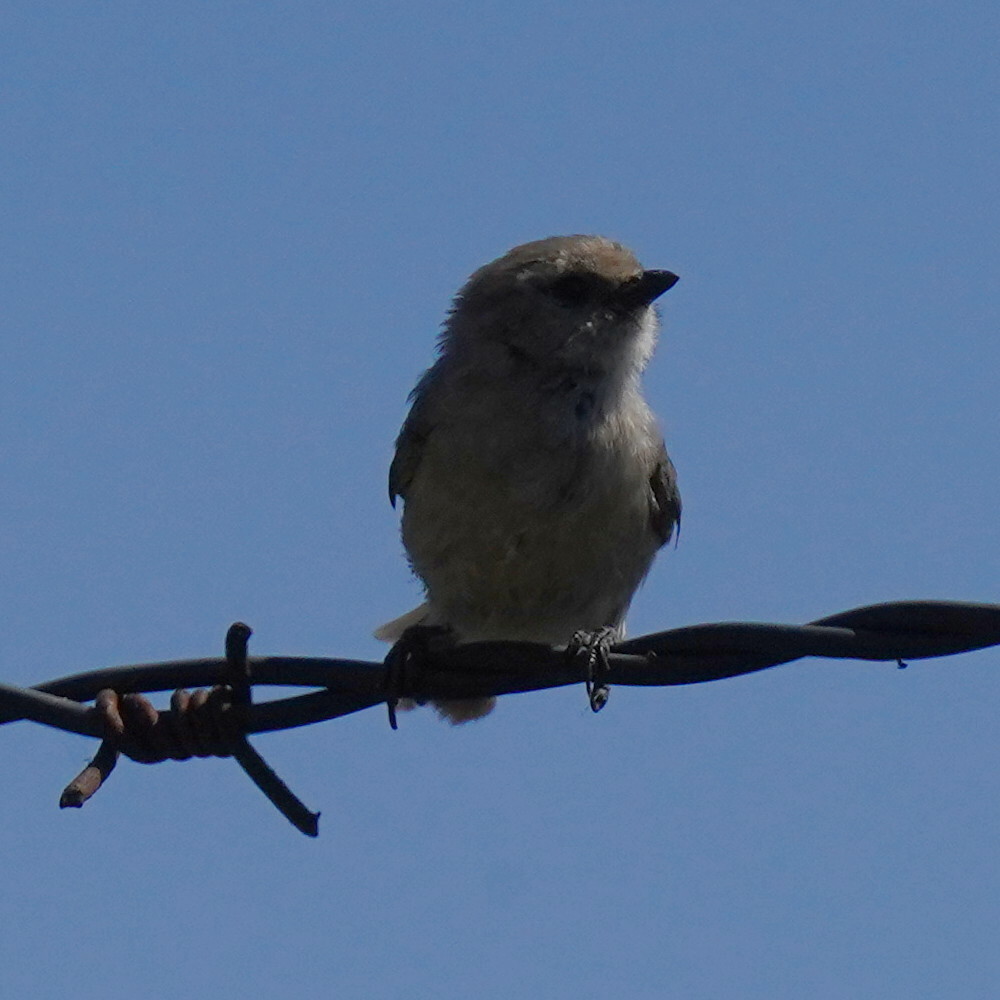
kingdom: Animalia
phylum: Chordata
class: Aves
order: Passeriformes
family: Aegithalidae
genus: Psaltriparus
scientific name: Psaltriparus minimus
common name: American bushtit
